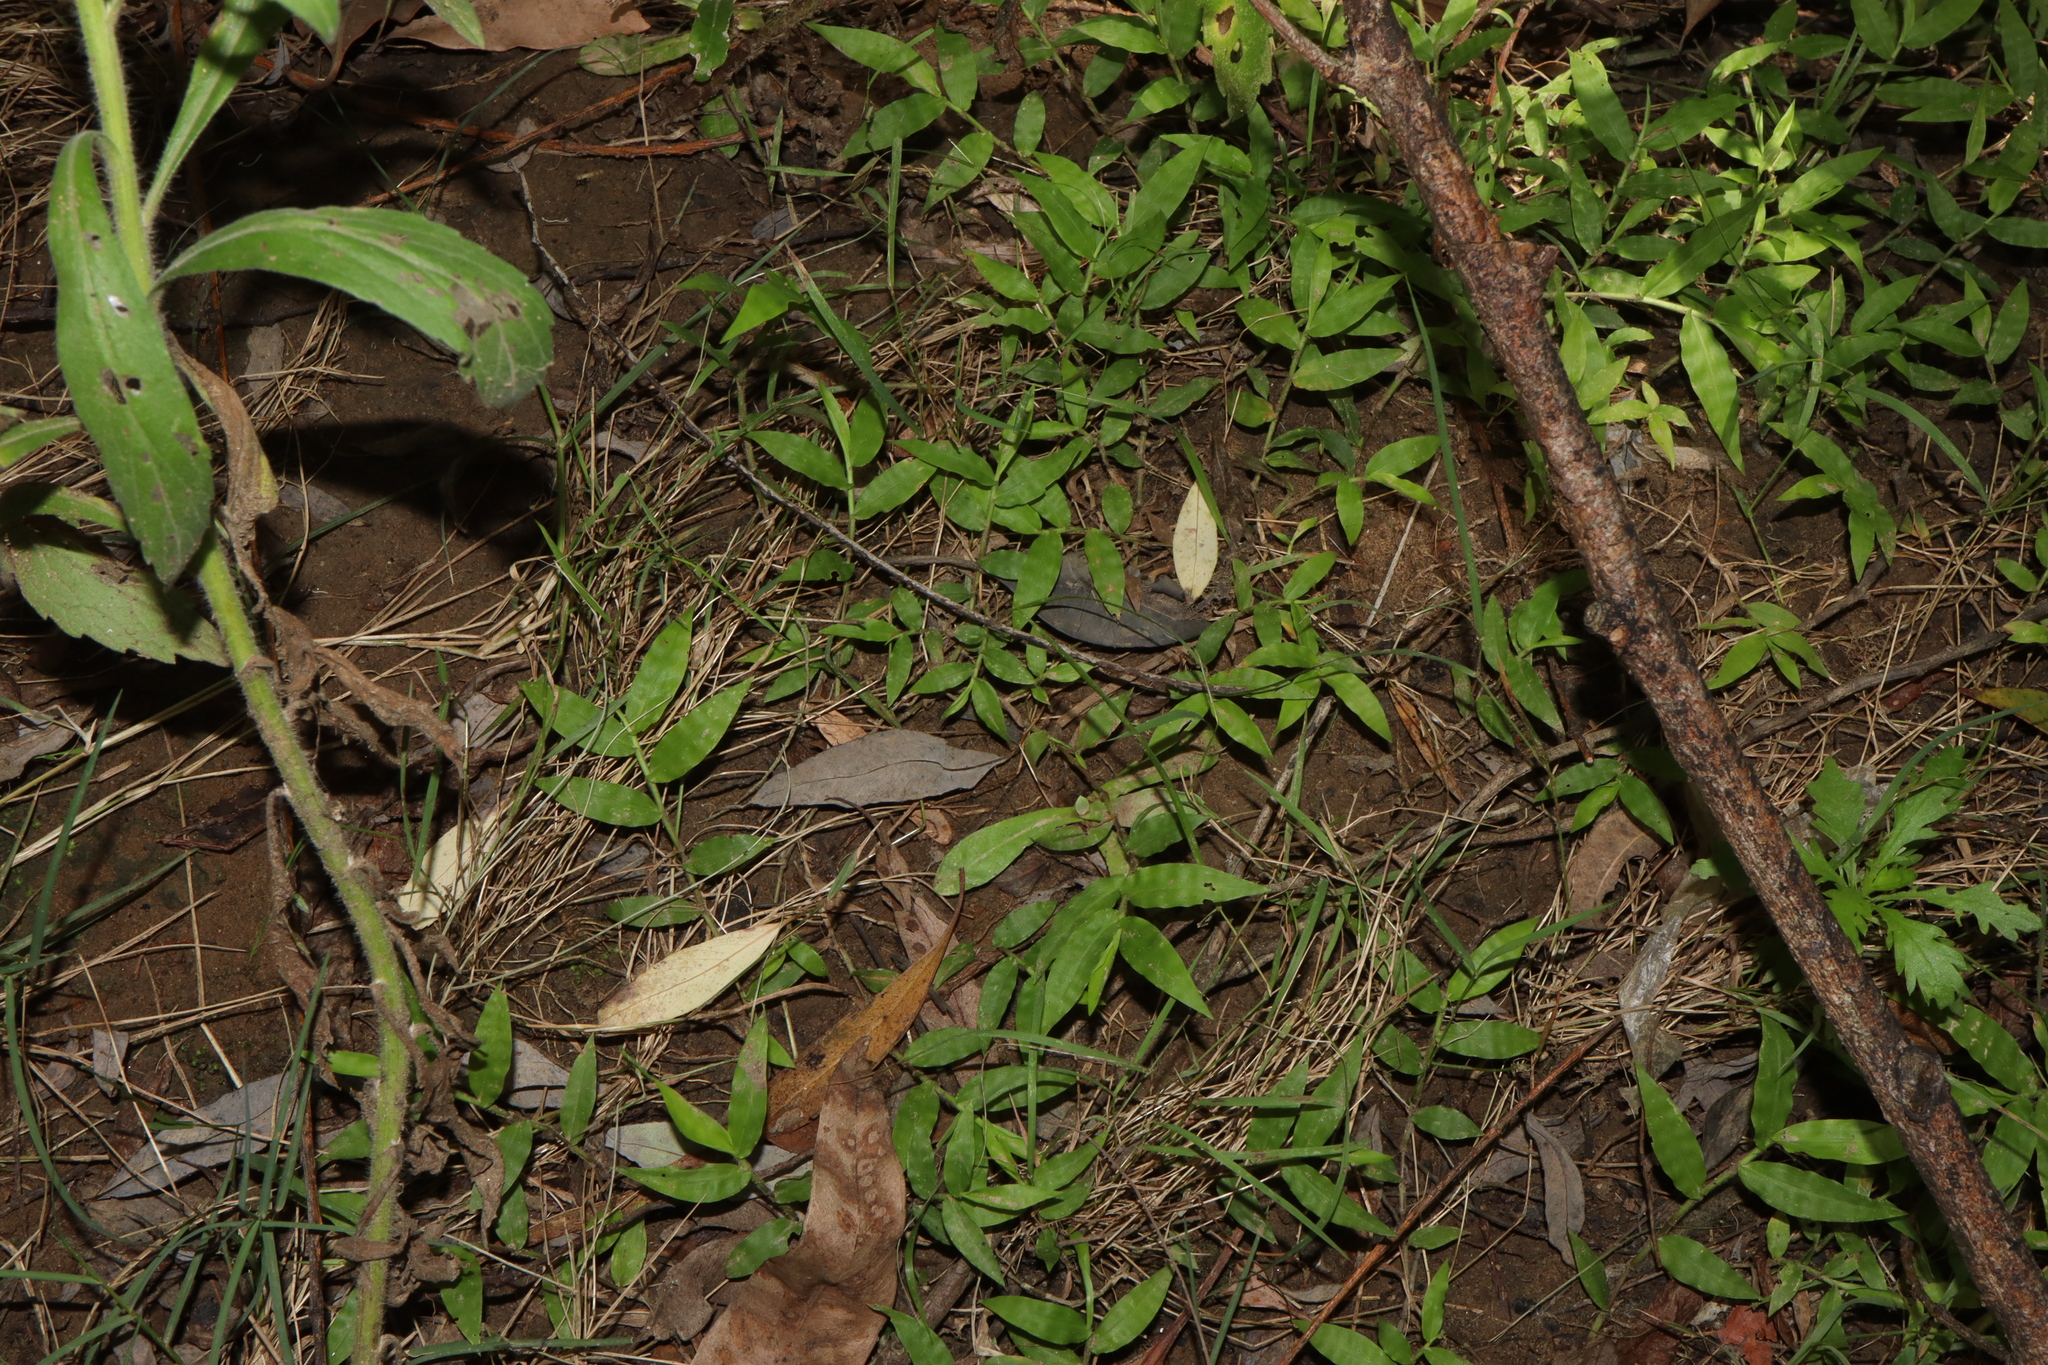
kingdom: Plantae
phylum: Tracheophyta
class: Liliopsida
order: Poales
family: Poaceae
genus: Oplismenus
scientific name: Oplismenus hirtellus
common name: Basketgrass
